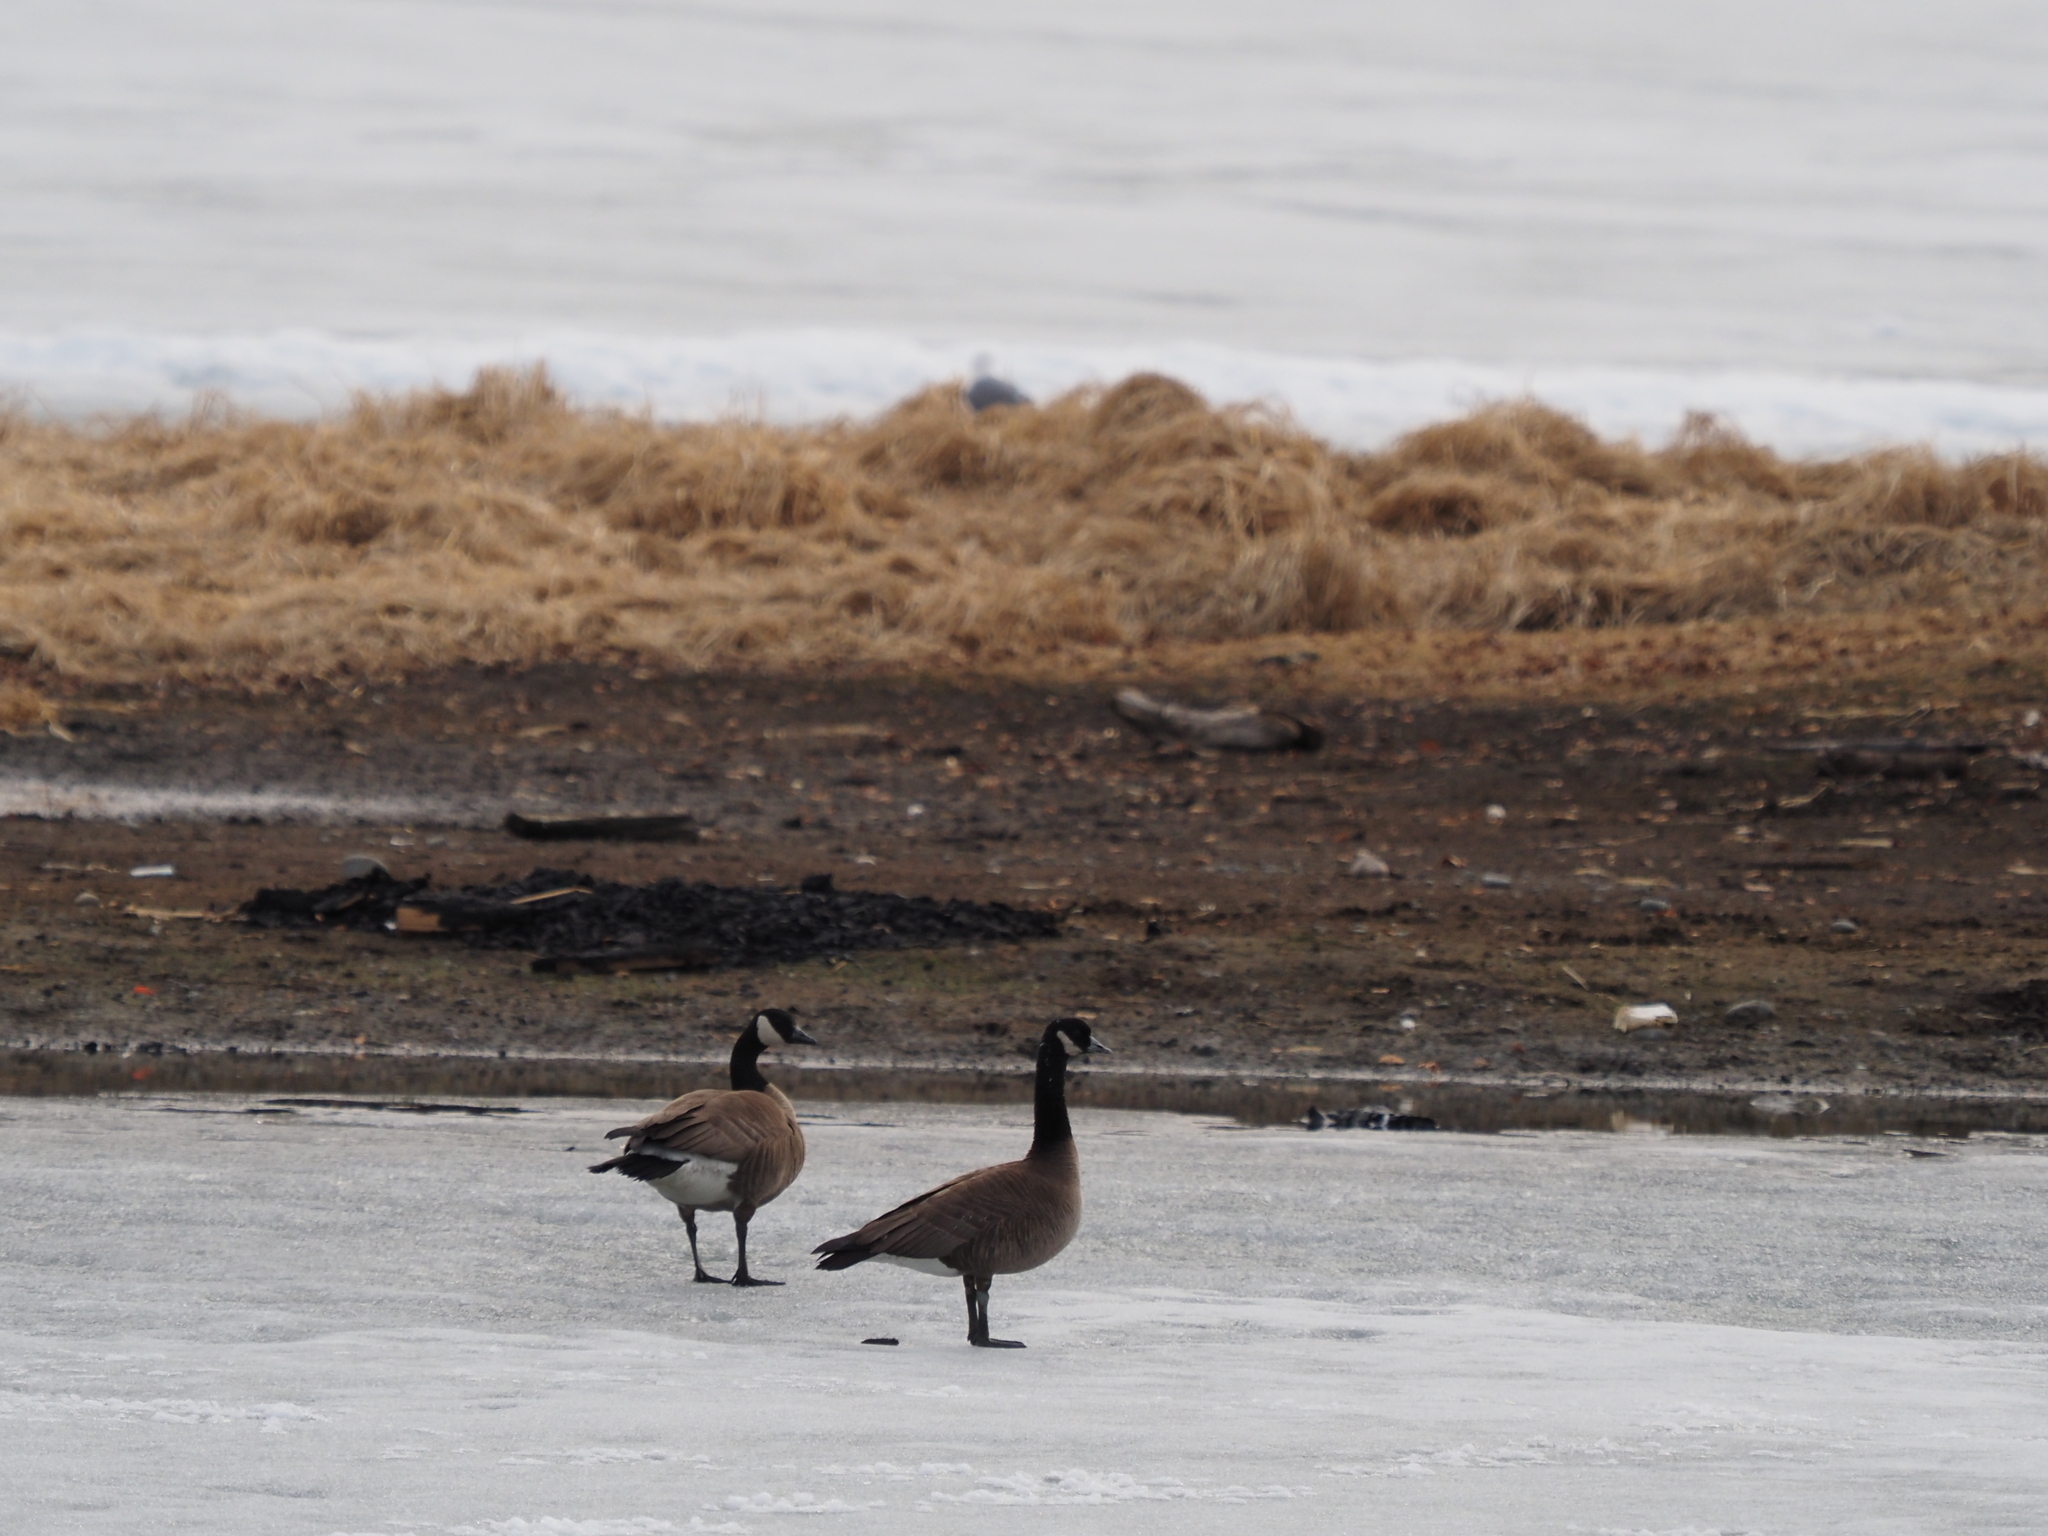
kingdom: Animalia
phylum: Chordata
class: Aves
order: Anseriformes
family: Anatidae
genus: Branta
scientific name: Branta canadensis
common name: Canada goose
